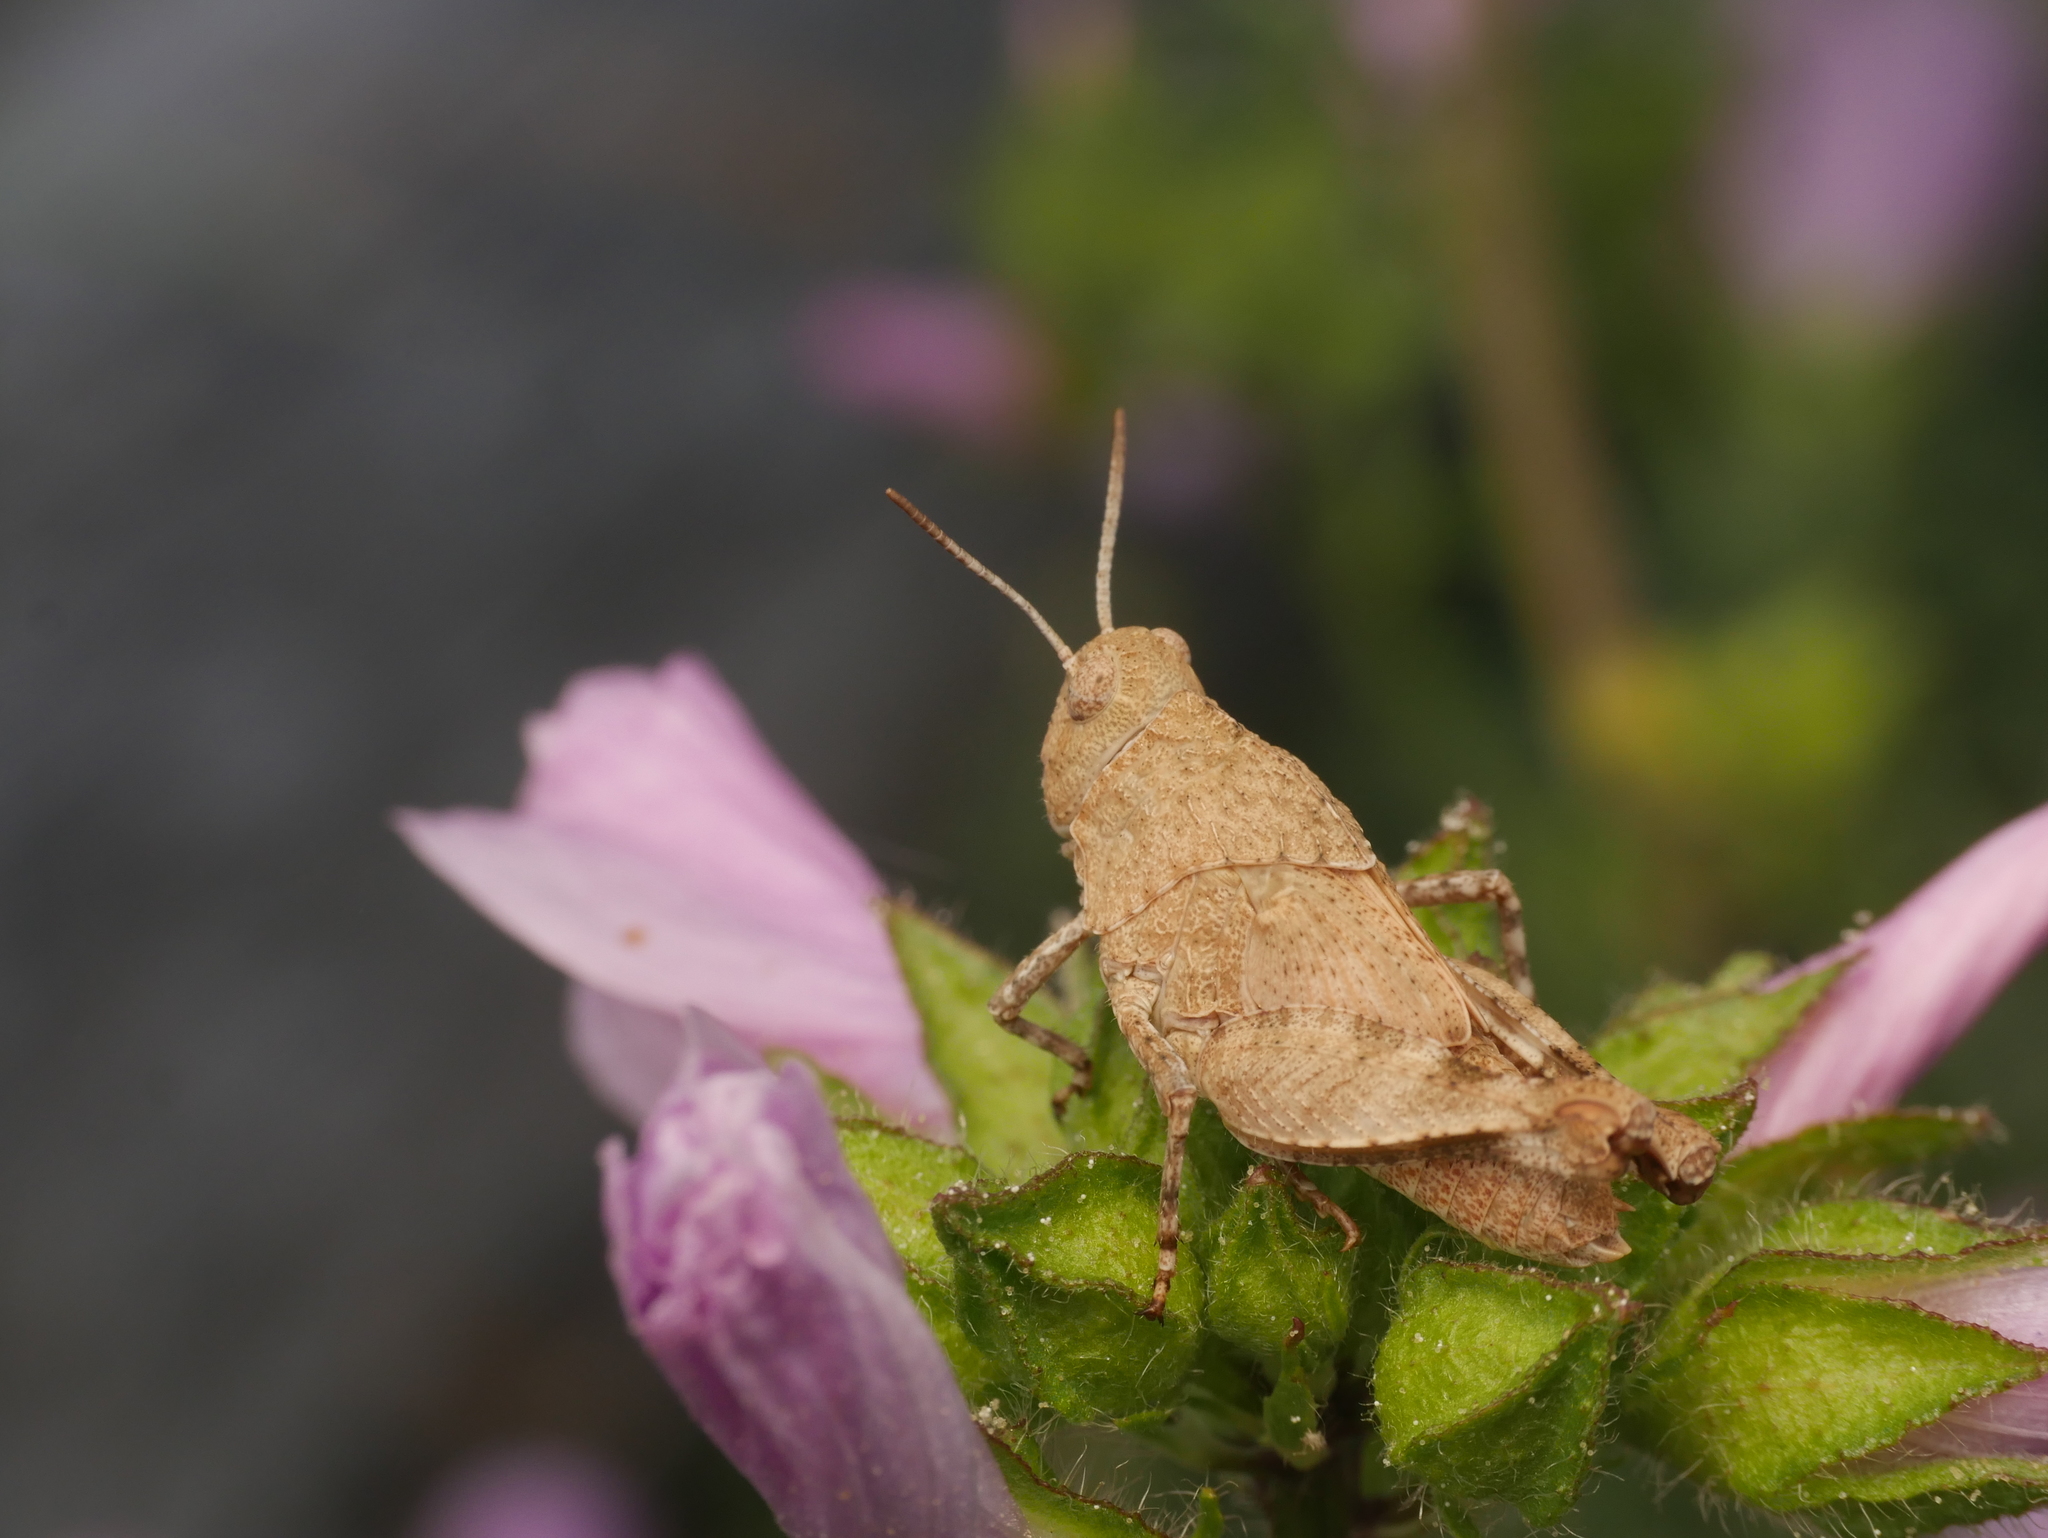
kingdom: Animalia
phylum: Arthropoda
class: Insecta
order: Orthoptera
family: Acrididae
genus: Oedipoda
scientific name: Oedipoda caerulescens
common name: Blue-winged grasshopper
